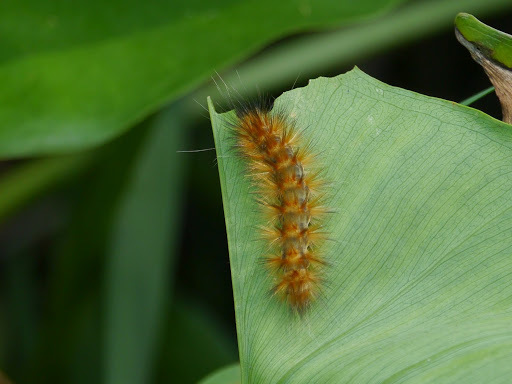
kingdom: Animalia
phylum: Arthropoda
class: Insecta
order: Lepidoptera
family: Erebidae
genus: Spilosoma
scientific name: Spilosoma virginica
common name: Virginia tiger moth
